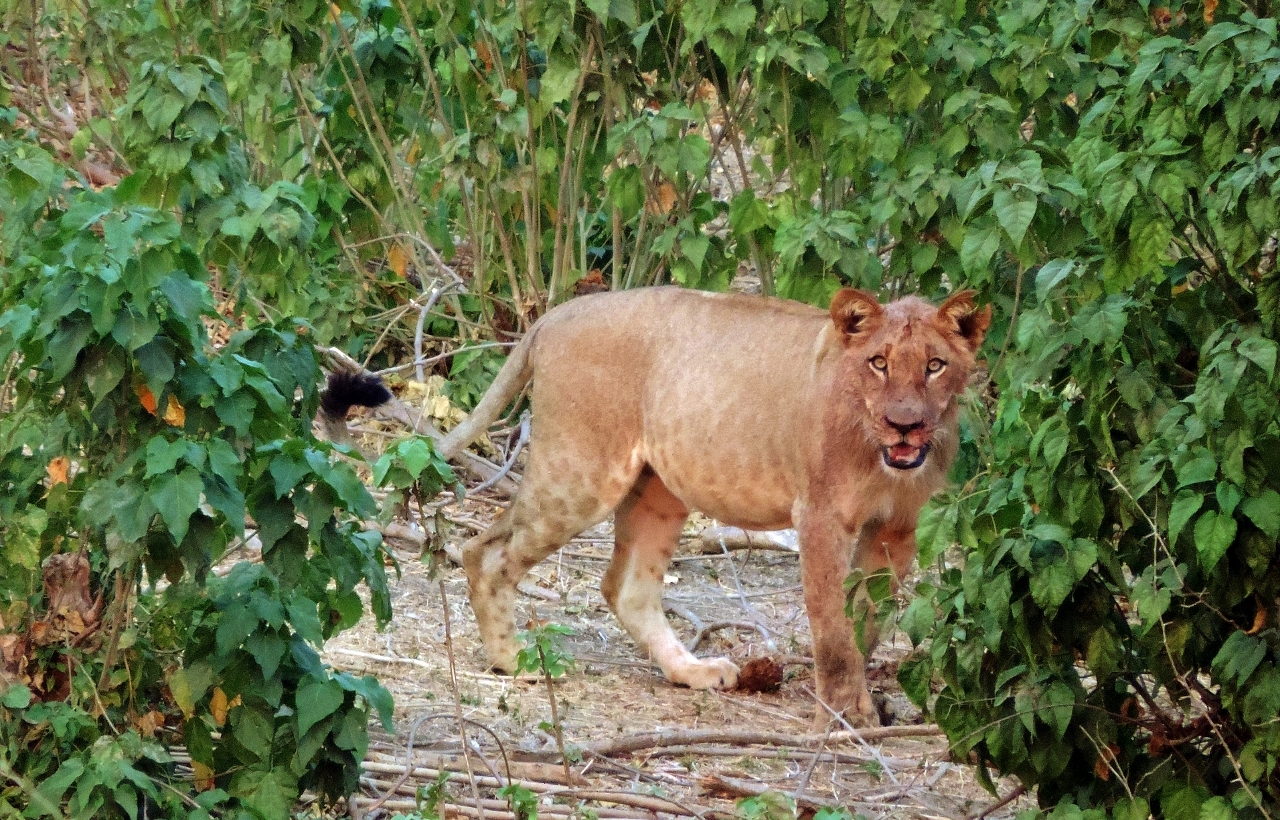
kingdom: Animalia
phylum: Chordata
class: Mammalia
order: Carnivora
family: Felidae
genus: Panthera
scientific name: Panthera leo
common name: Lion
